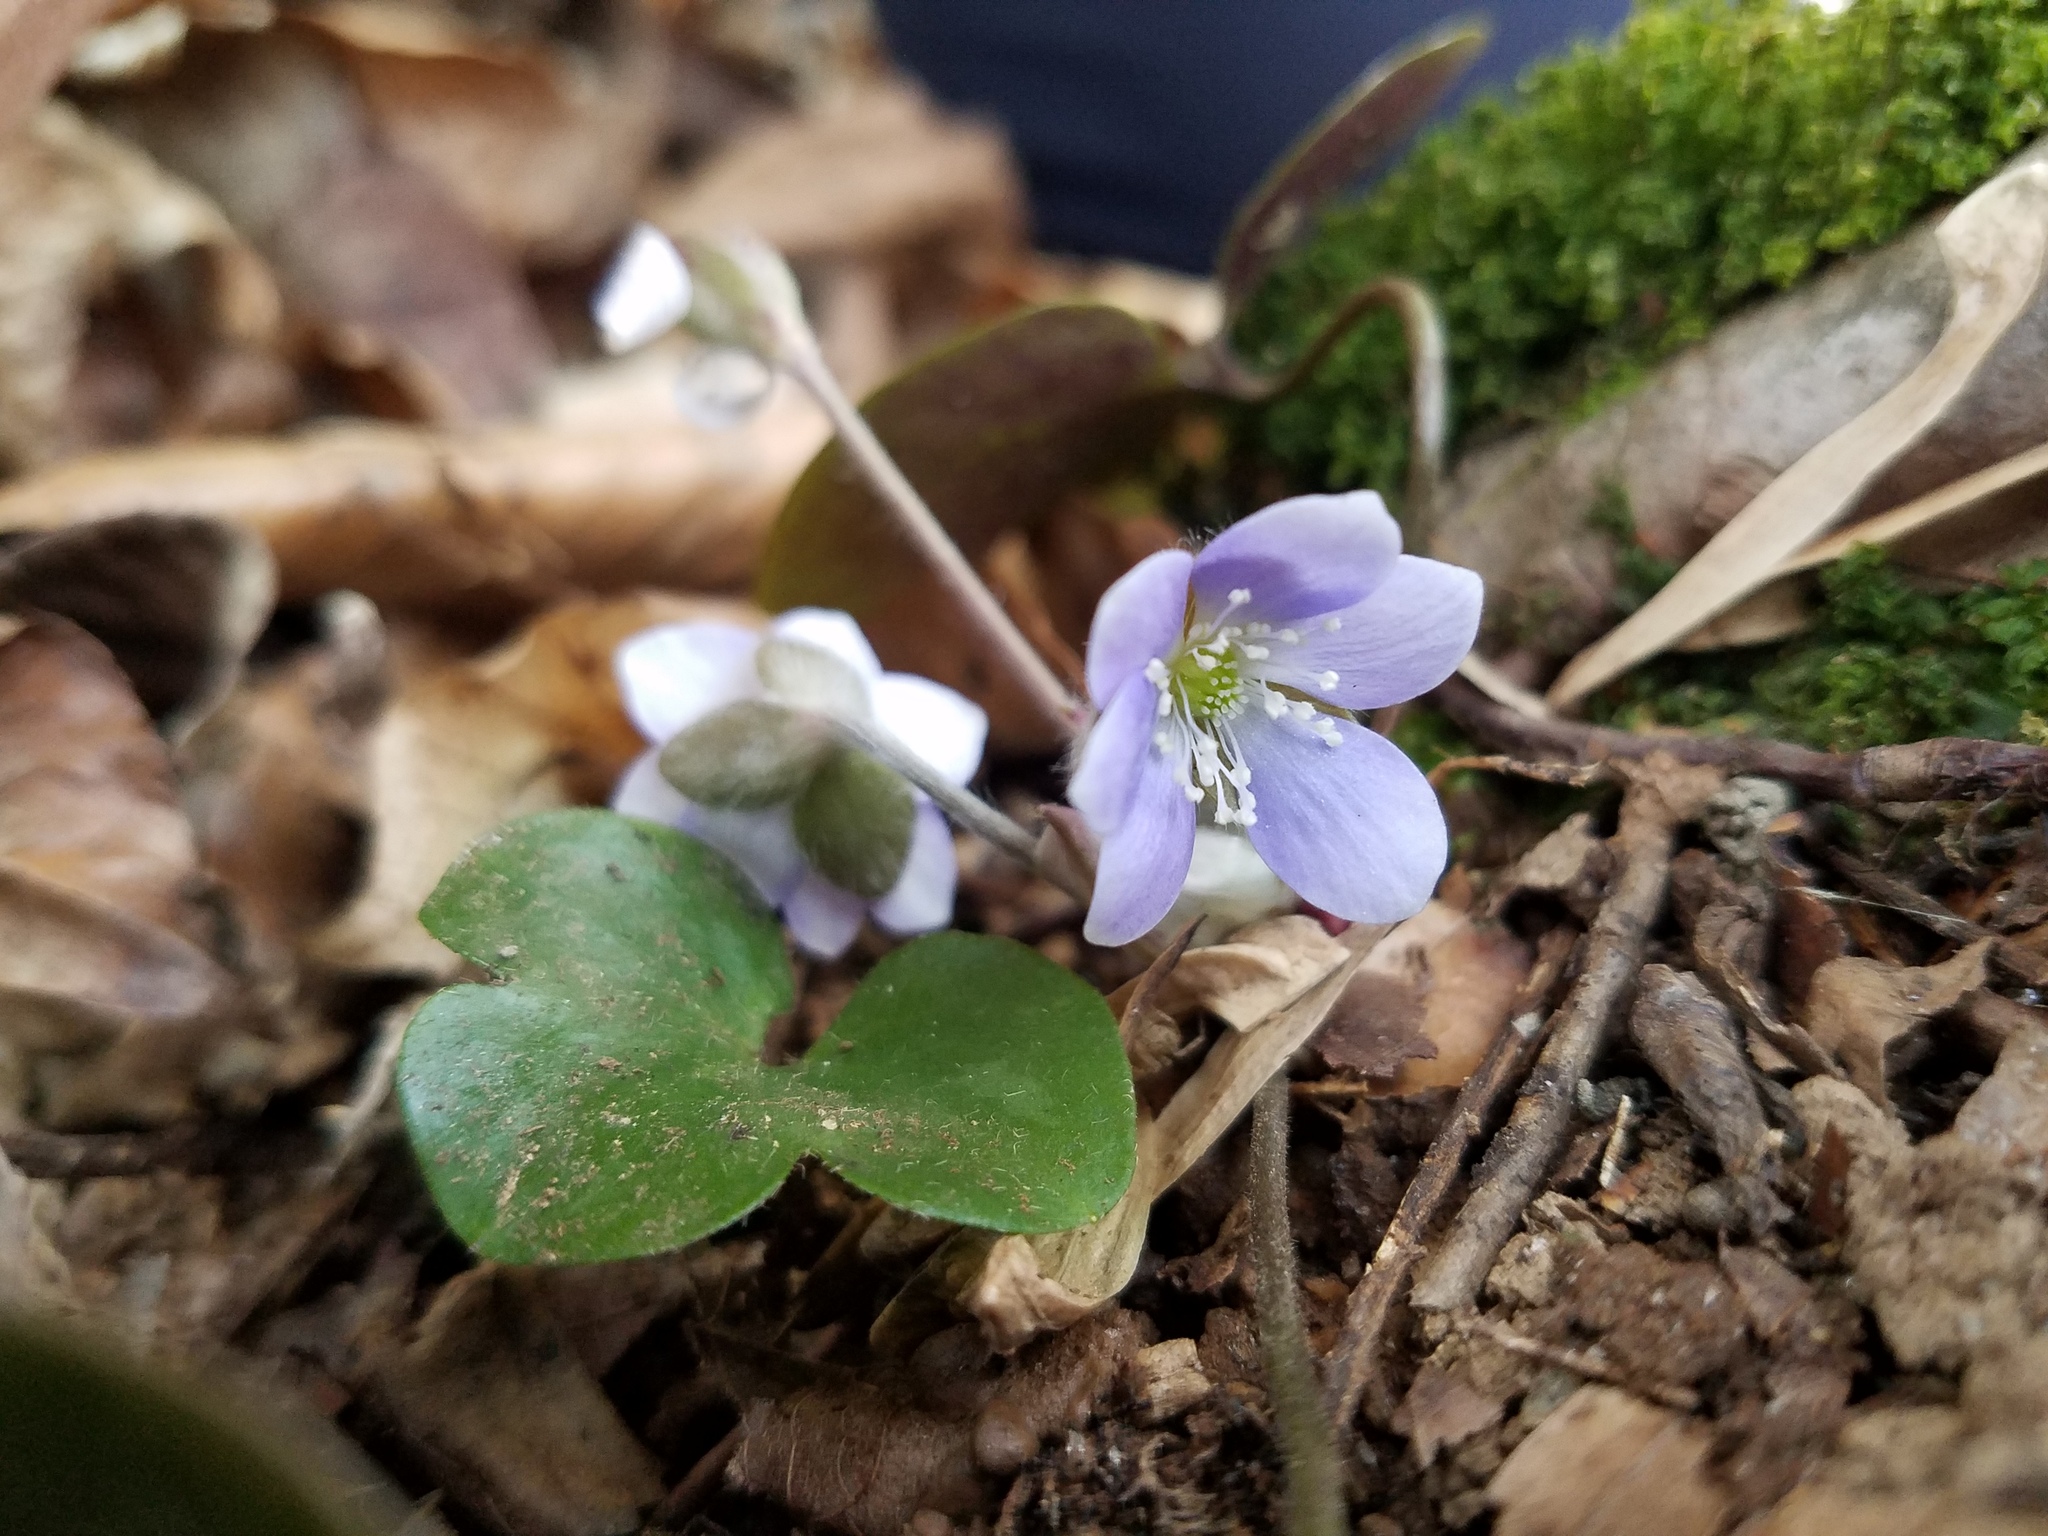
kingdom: Plantae
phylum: Tracheophyta
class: Magnoliopsida
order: Ranunculales
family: Ranunculaceae
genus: Hepatica
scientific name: Hepatica americana
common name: American hepatica
